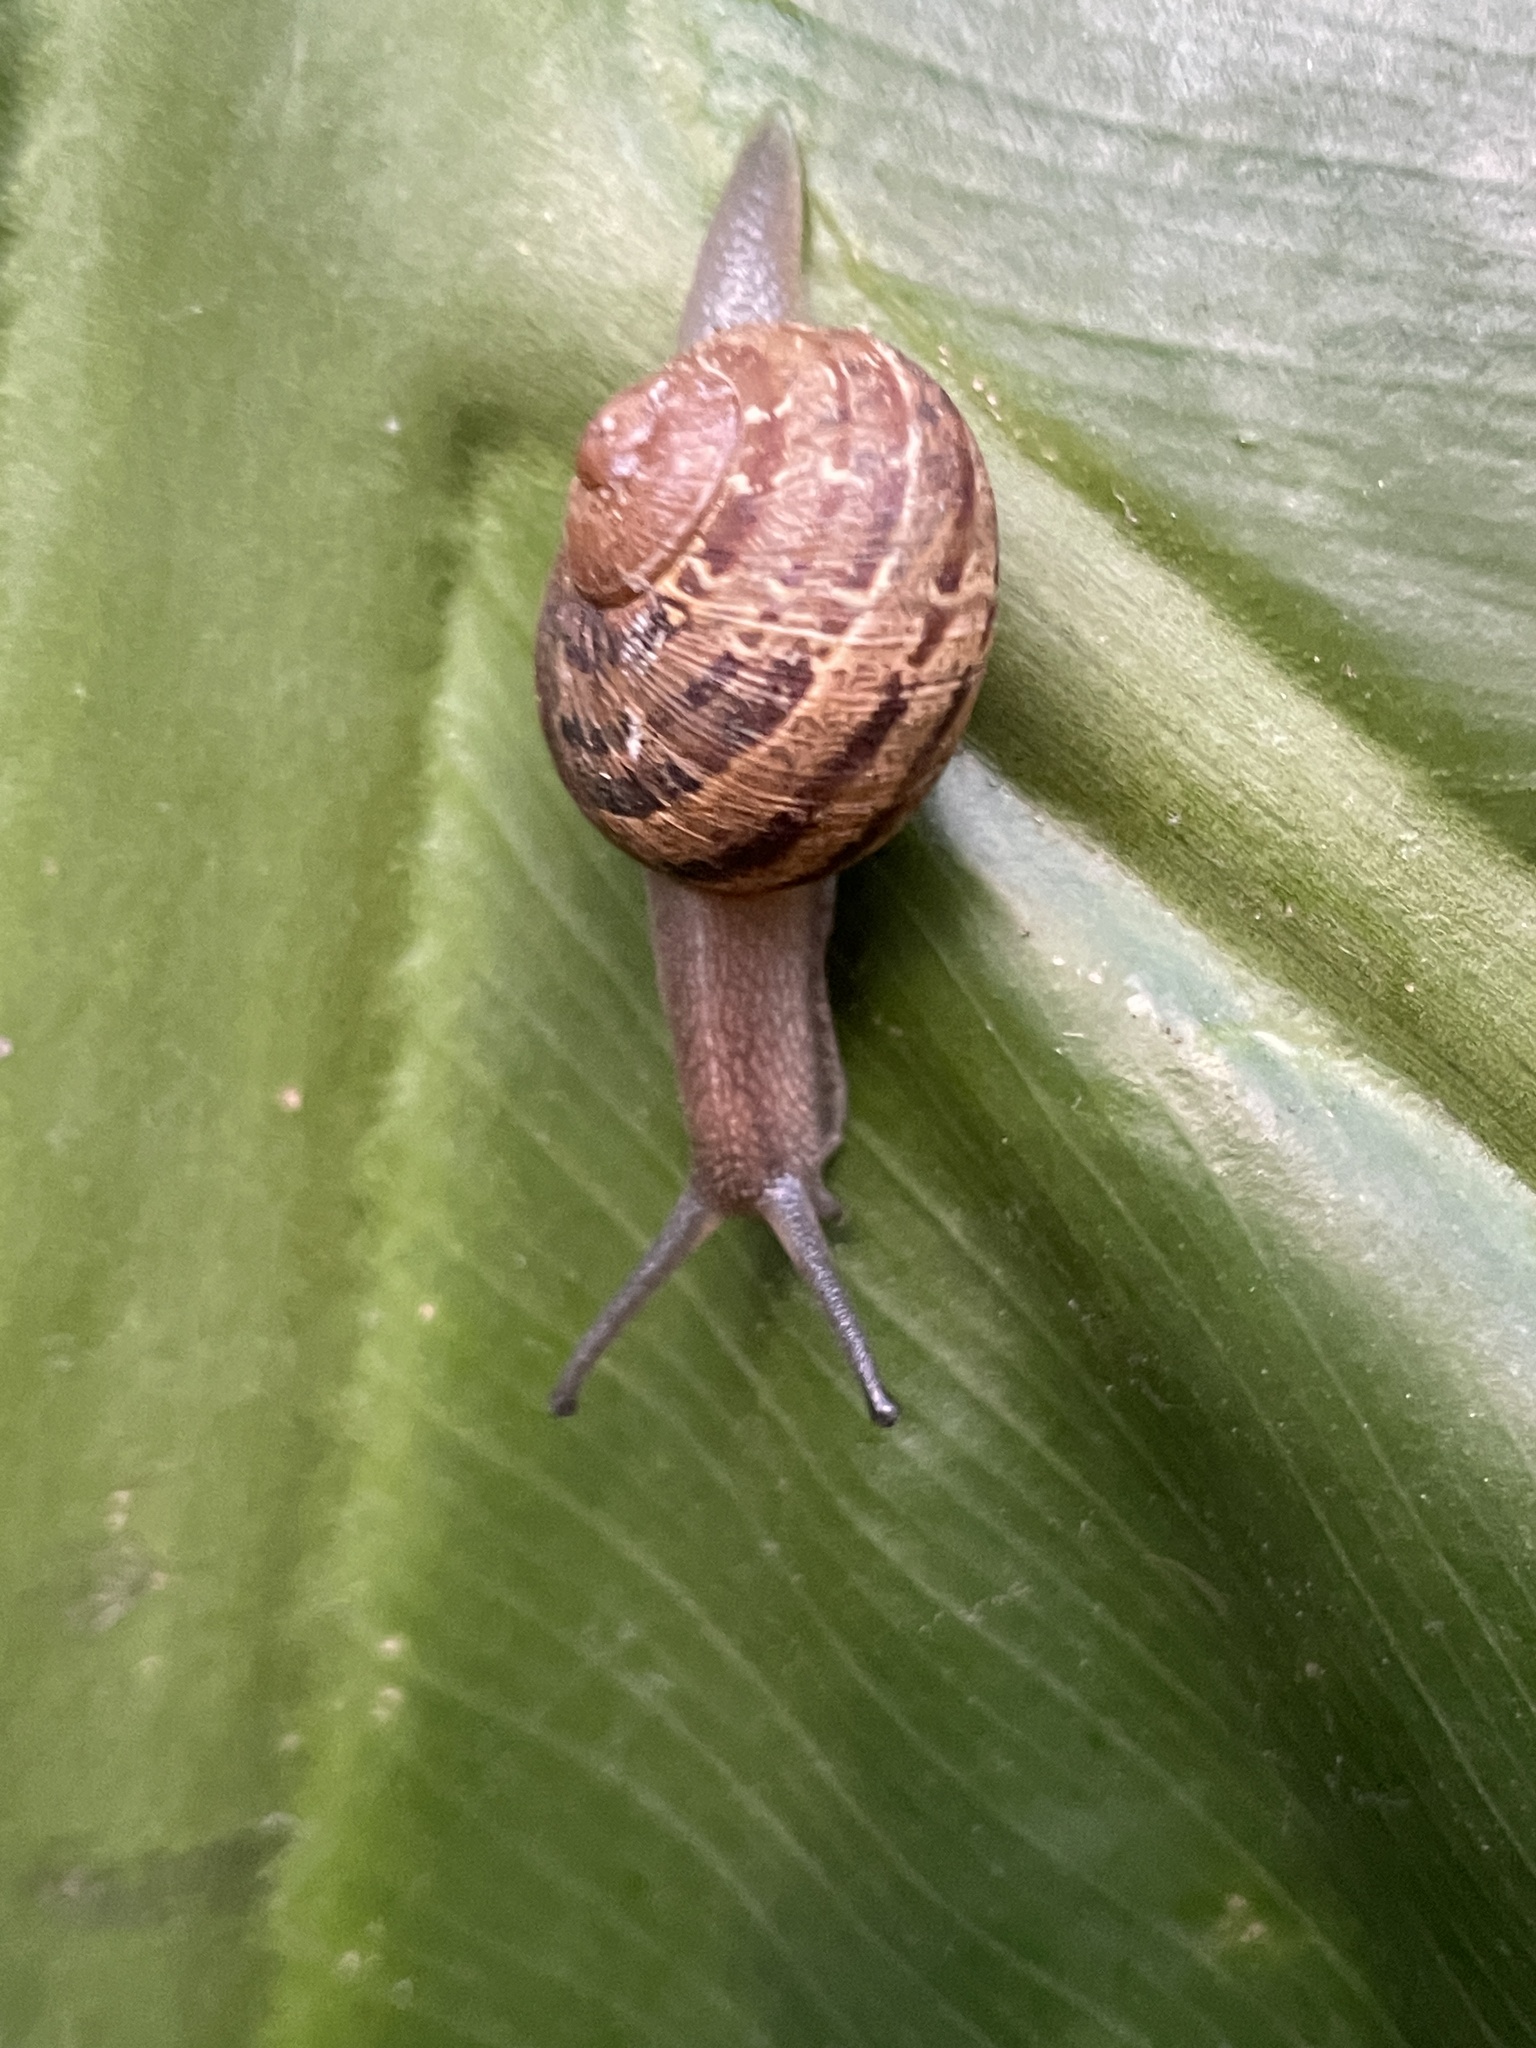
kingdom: Animalia
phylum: Mollusca
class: Gastropoda
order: Stylommatophora
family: Helicidae
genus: Cornu
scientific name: Cornu aspersum
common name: Brown garden snail
